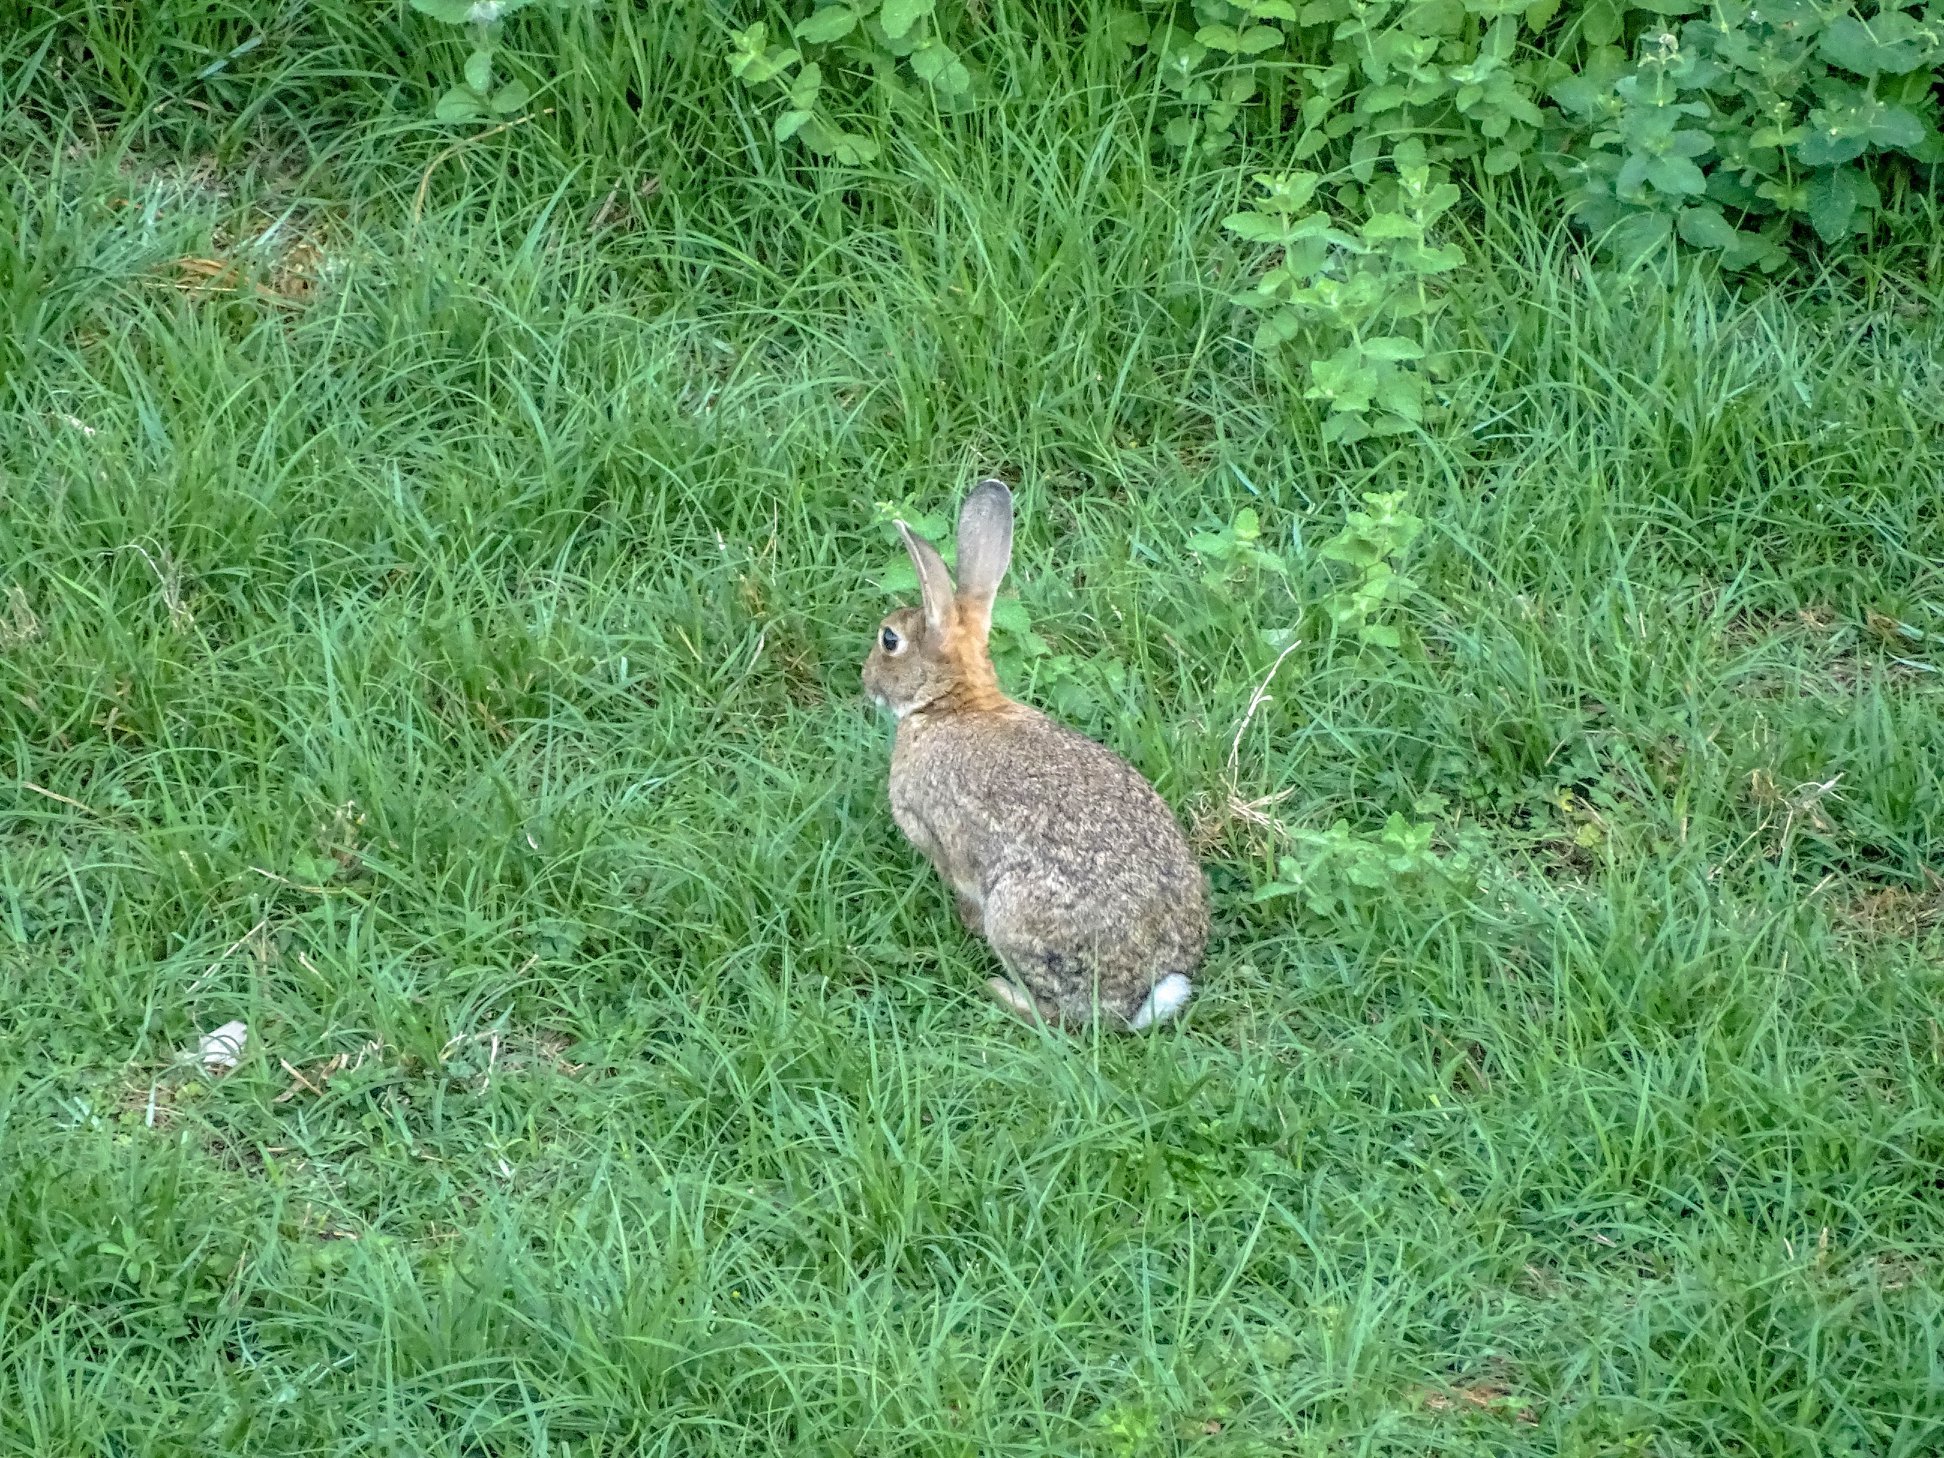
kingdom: Animalia
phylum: Chordata
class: Mammalia
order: Lagomorpha
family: Leporidae
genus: Oryctolagus
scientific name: Oryctolagus cuniculus
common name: European rabbit
